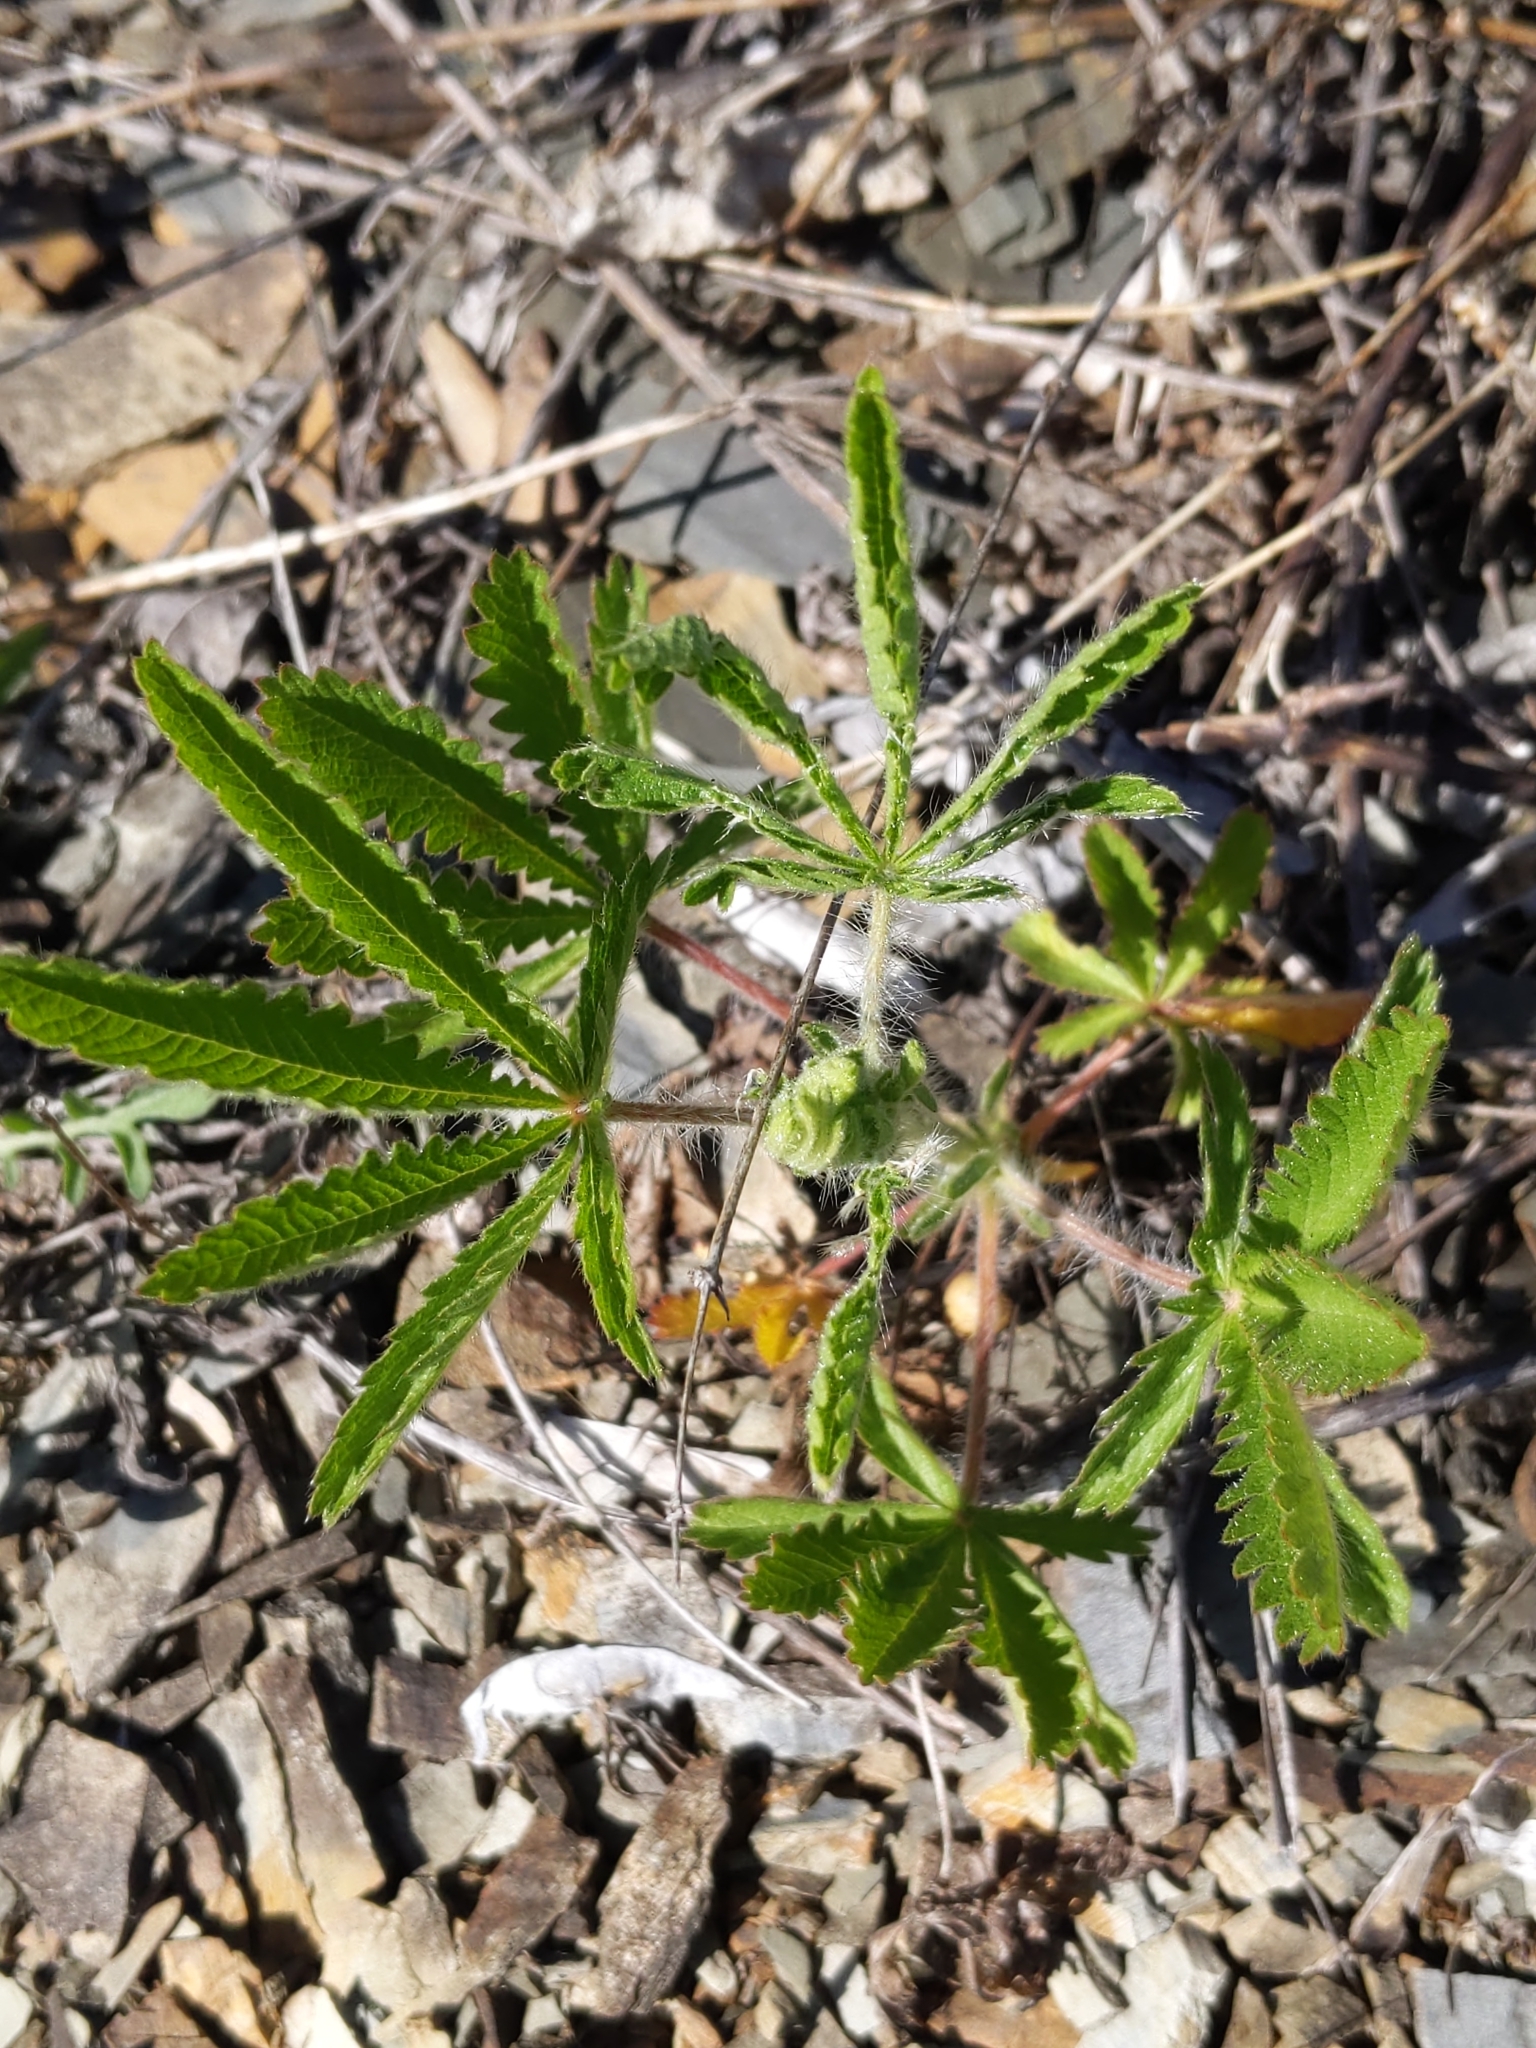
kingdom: Plantae
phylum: Tracheophyta
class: Magnoliopsida
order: Rosales
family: Rosaceae
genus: Potentilla
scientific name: Potentilla recta
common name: Sulphur cinquefoil
